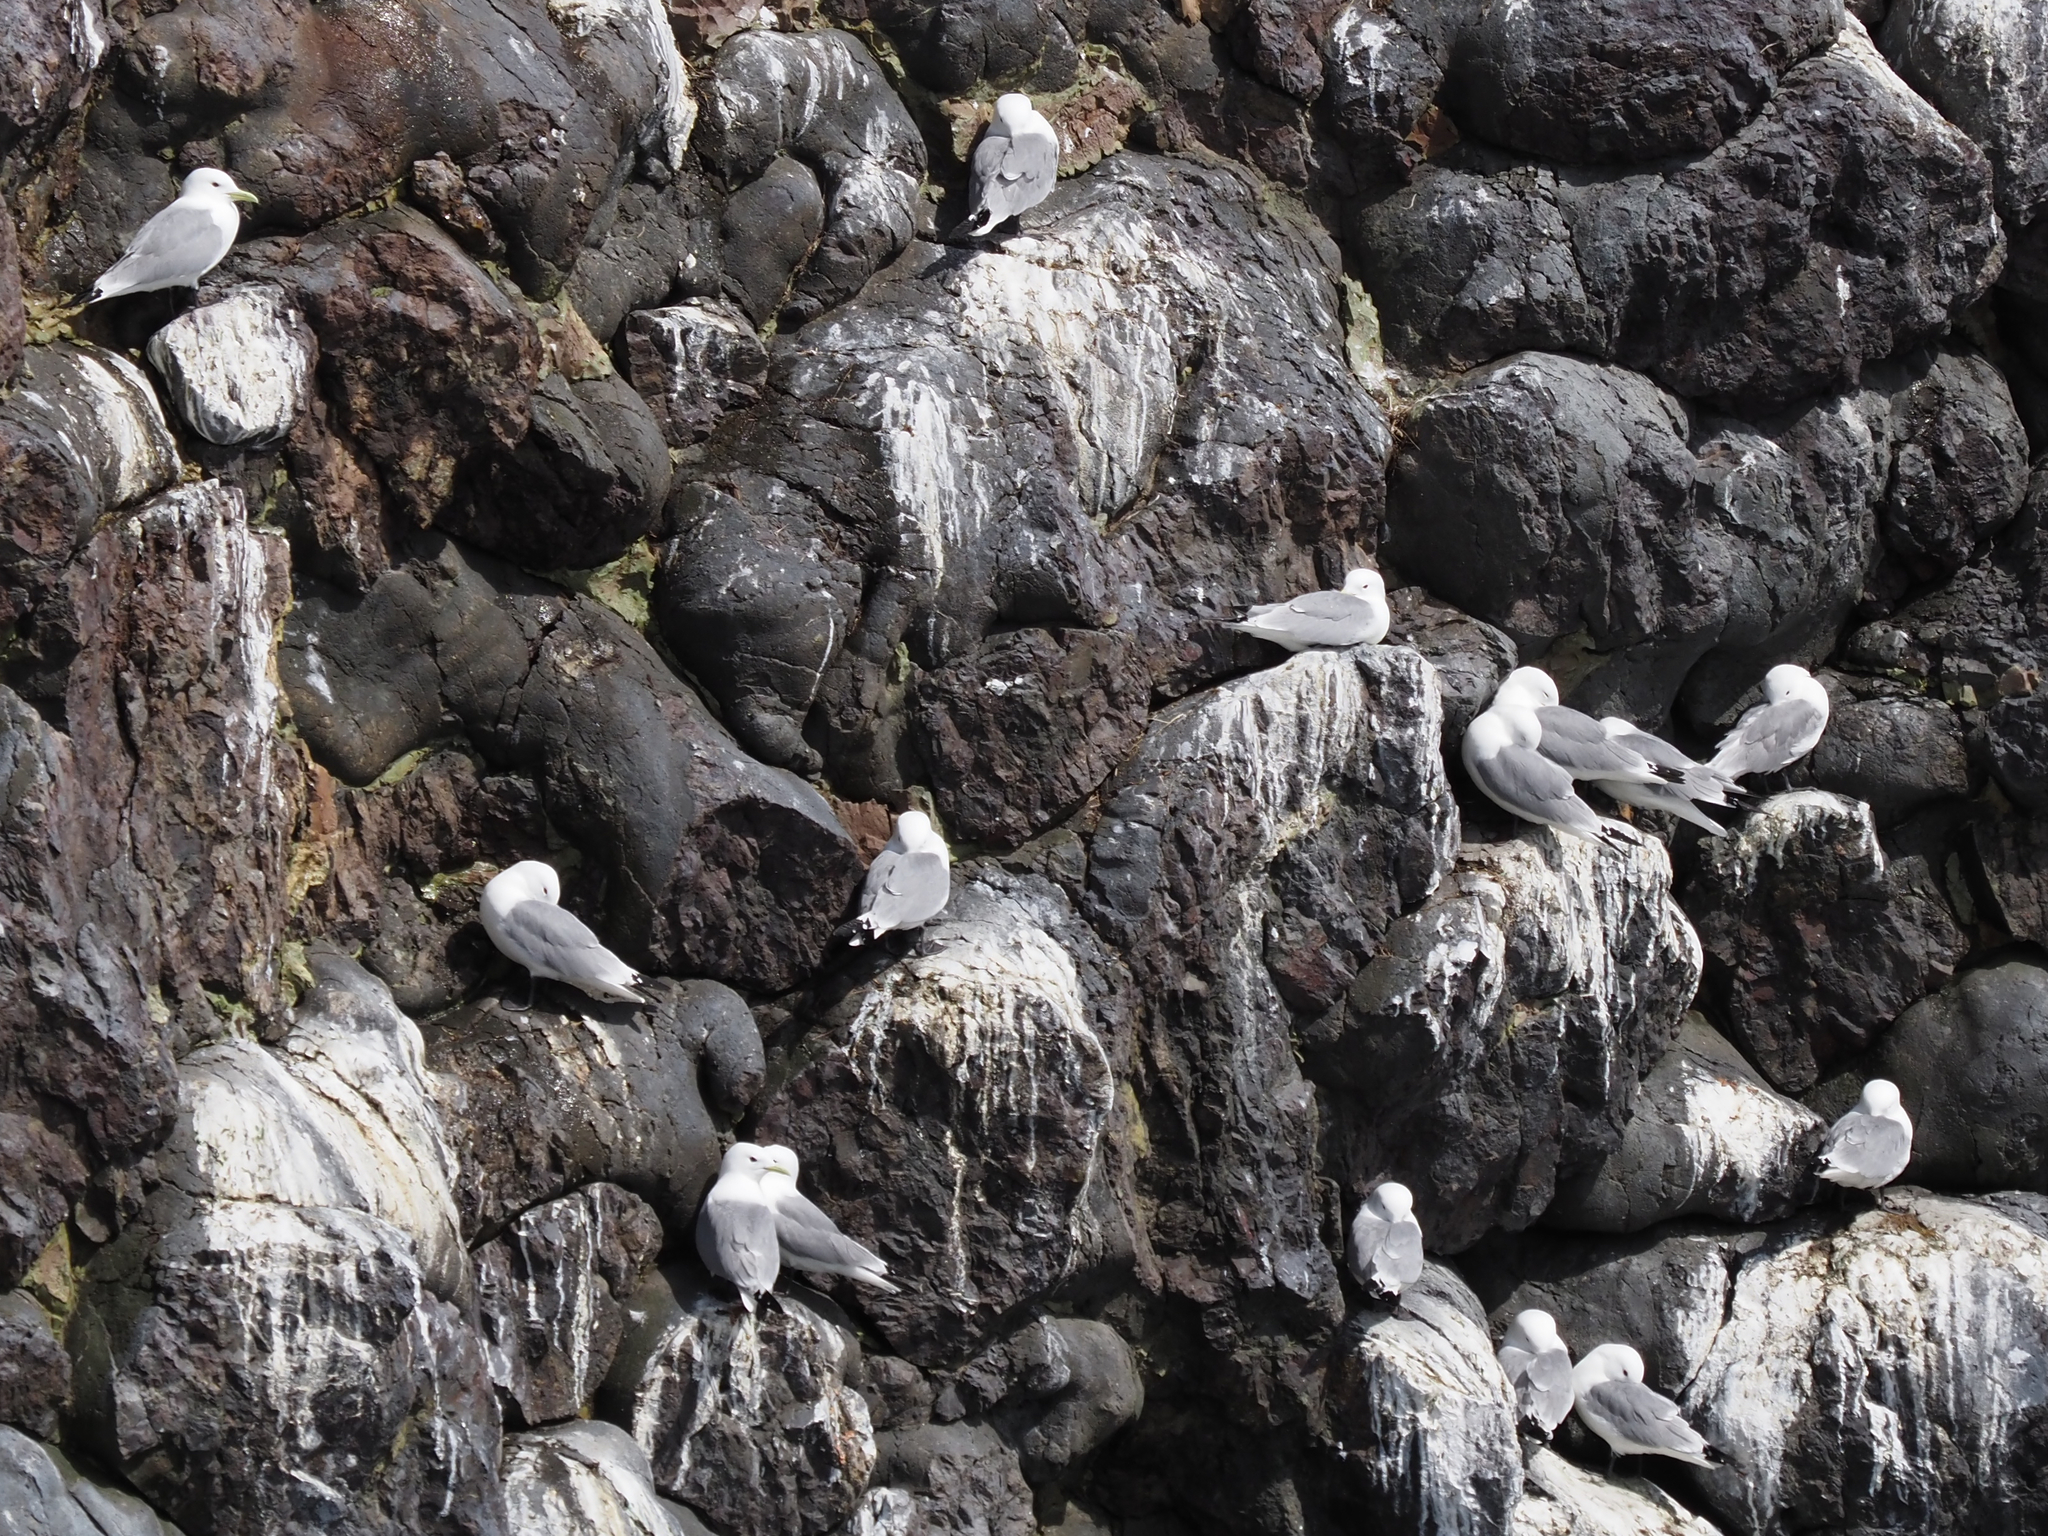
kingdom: Animalia
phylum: Chordata
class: Aves
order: Charadriiformes
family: Laridae
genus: Rissa
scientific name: Rissa tridactyla
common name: Black-legged kittiwake
